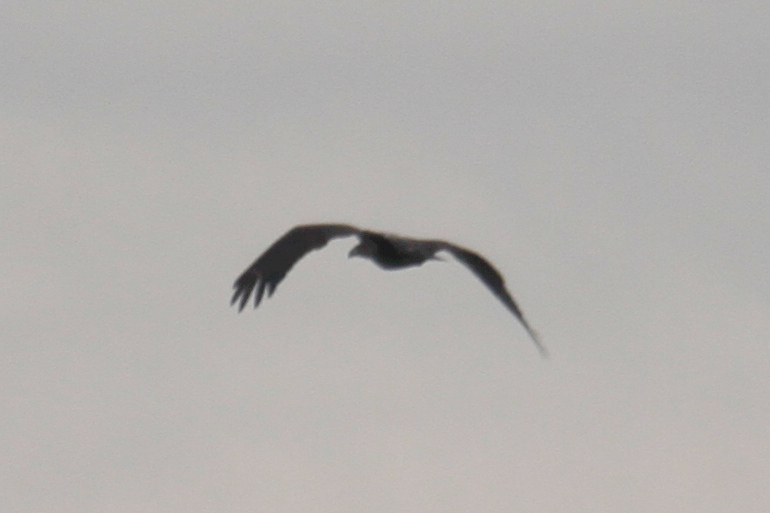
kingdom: Animalia
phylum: Chordata
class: Aves
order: Accipitriformes
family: Accipitridae
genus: Haliaeetus
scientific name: Haliaeetus leucocephalus
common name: Bald eagle
